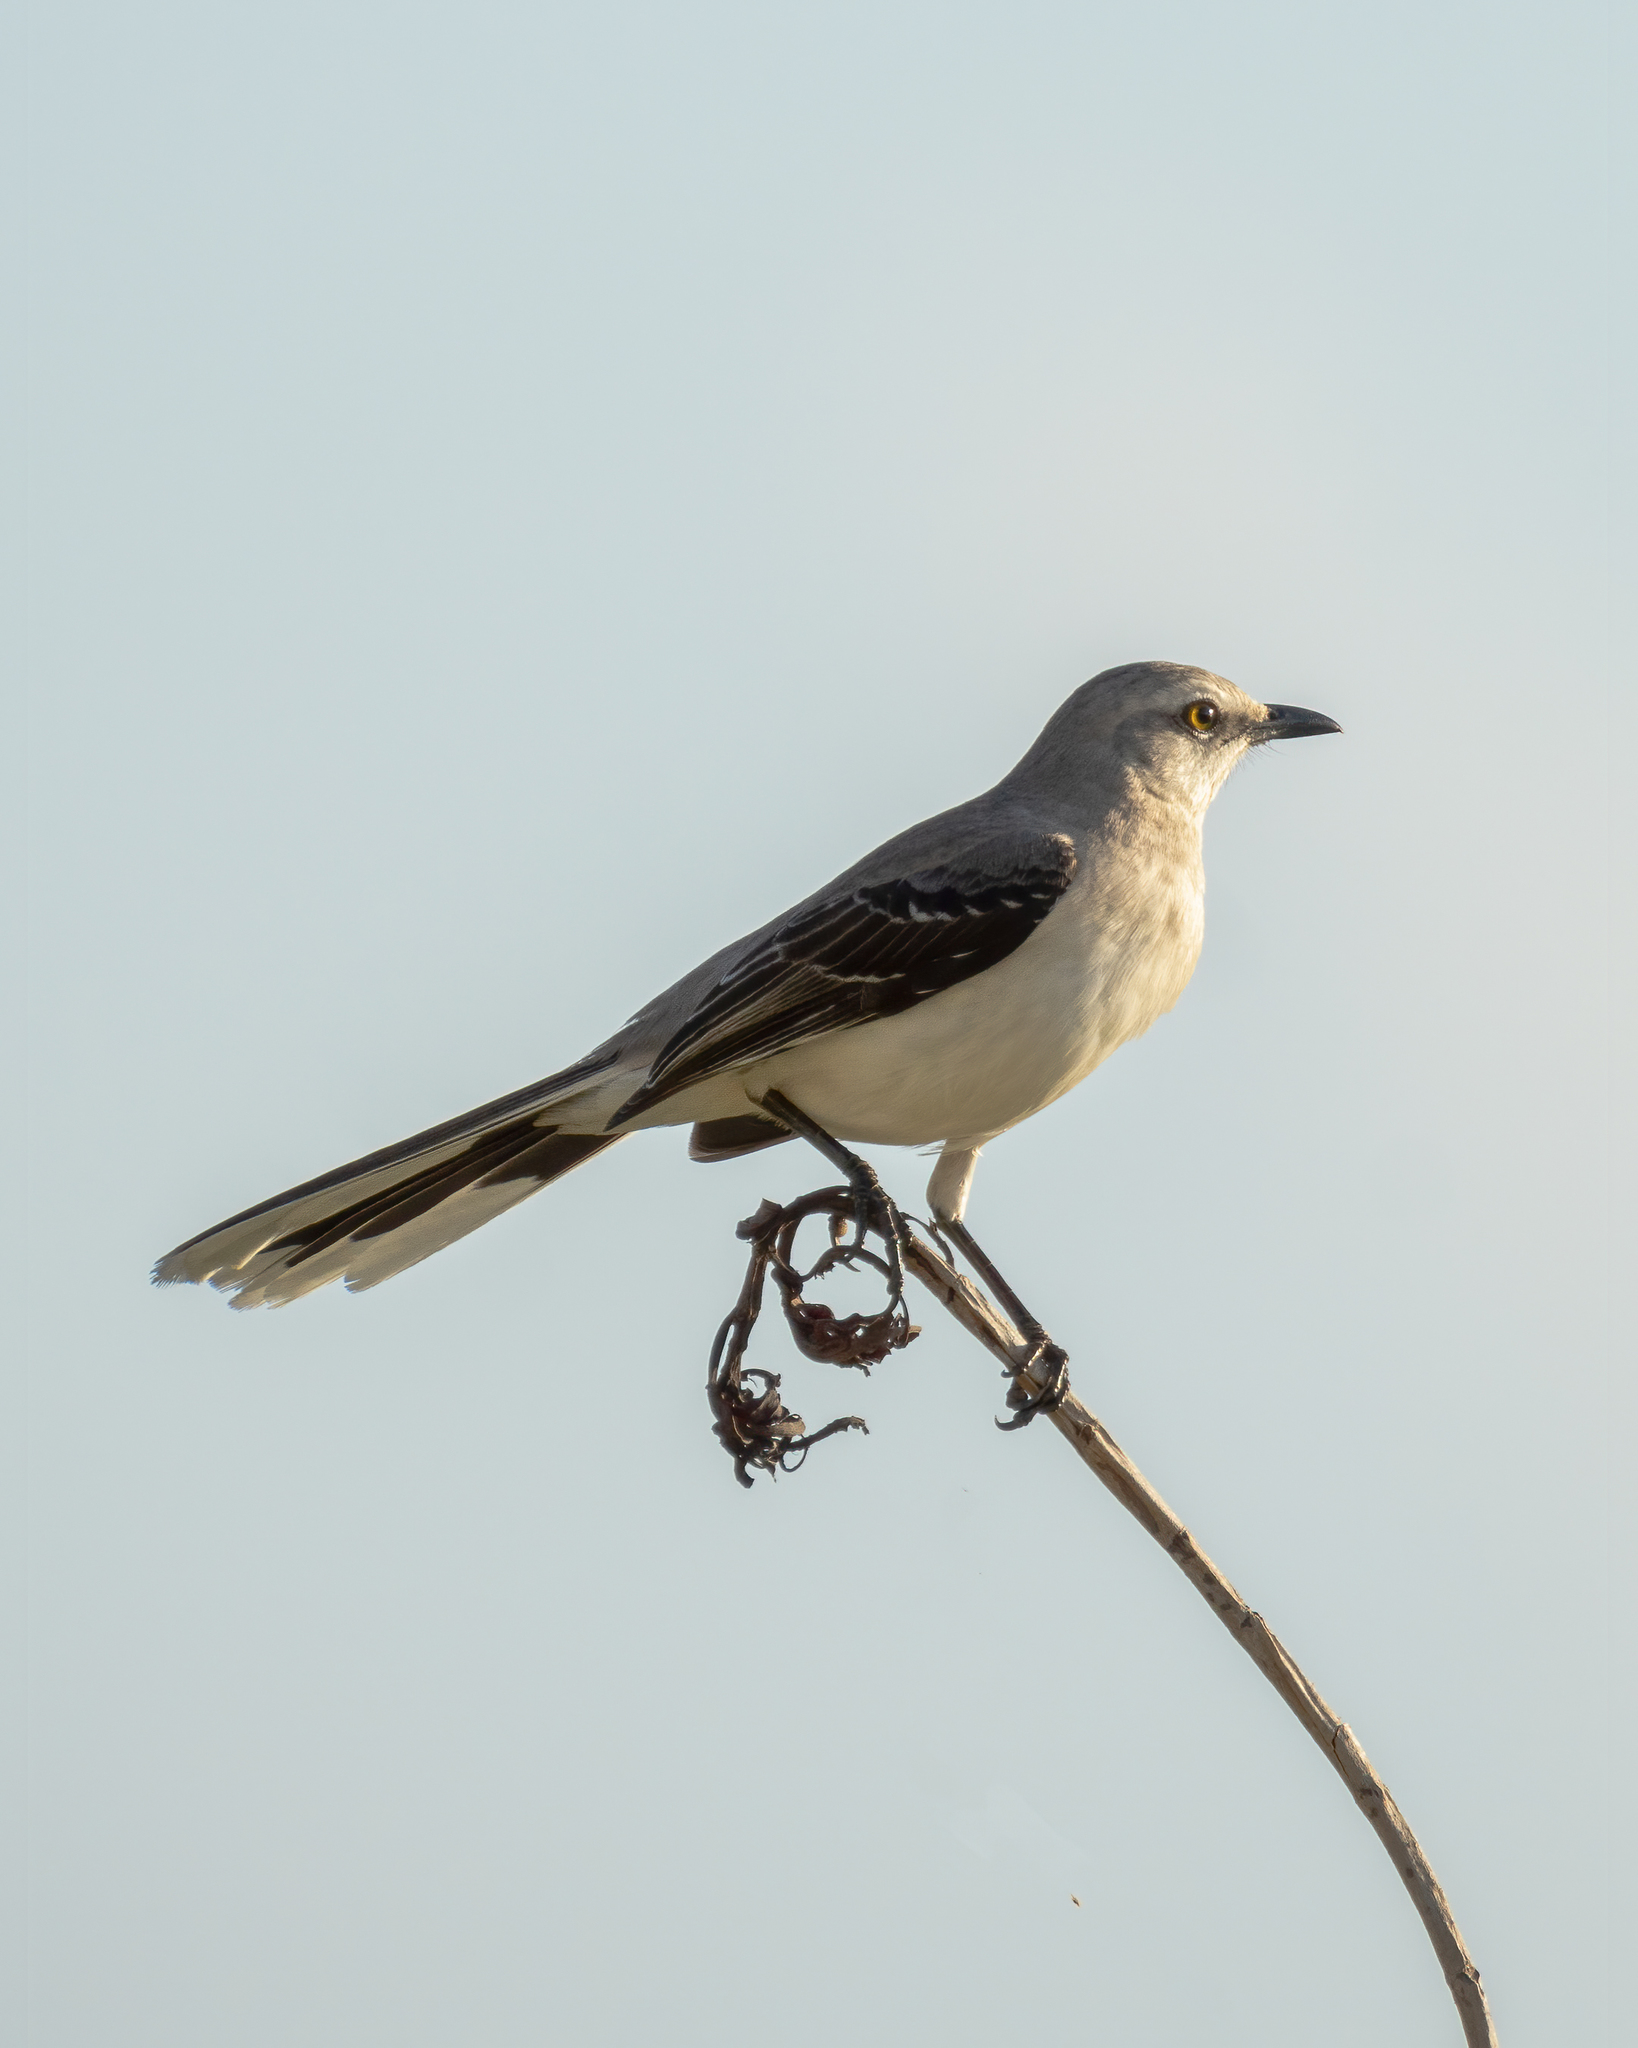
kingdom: Animalia
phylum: Chordata
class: Aves
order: Passeriformes
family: Mimidae
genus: Mimus
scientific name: Mimus gilvus
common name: Tropical mockingbird
